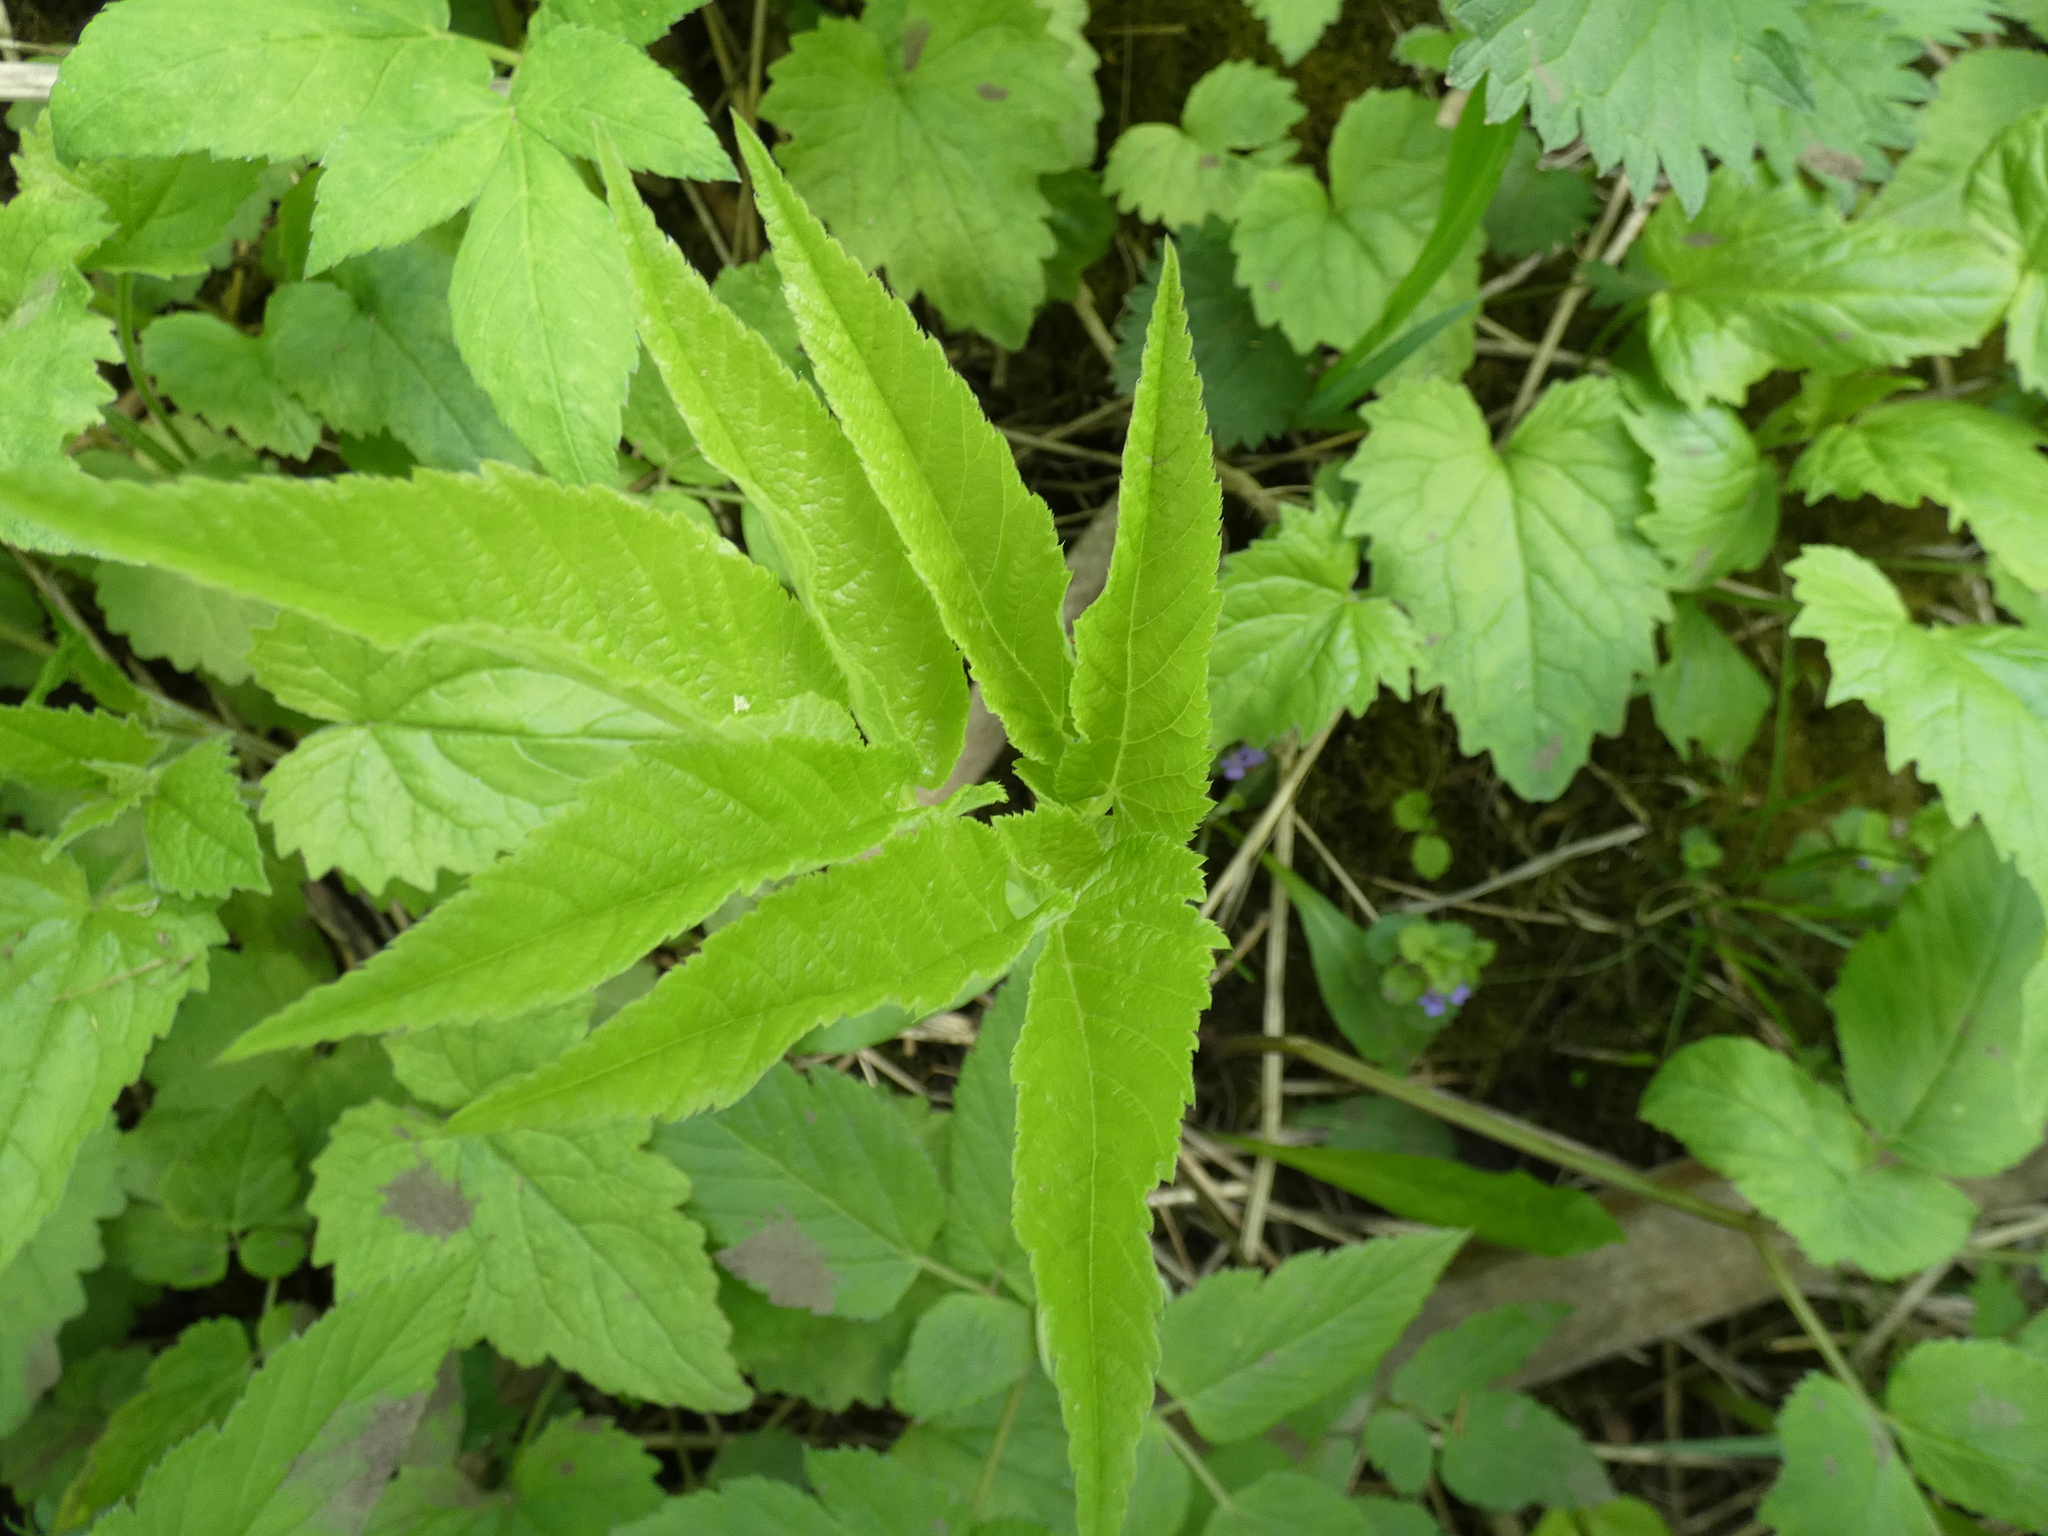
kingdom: Plantae
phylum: Tracheophyta
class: Magnoliopsida
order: Apiales
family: Apiaceae
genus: Aegopodium
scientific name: Aegopodium podagraria
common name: Ground-elder
